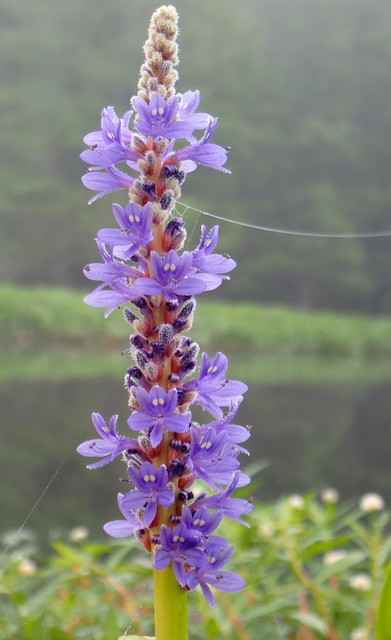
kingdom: Plantae
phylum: Tracheophyta
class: Liliopsida
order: Commelinales
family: Pontederiaceae
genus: Pontederia
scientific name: Pontederia cordata
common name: Pickerelweed
